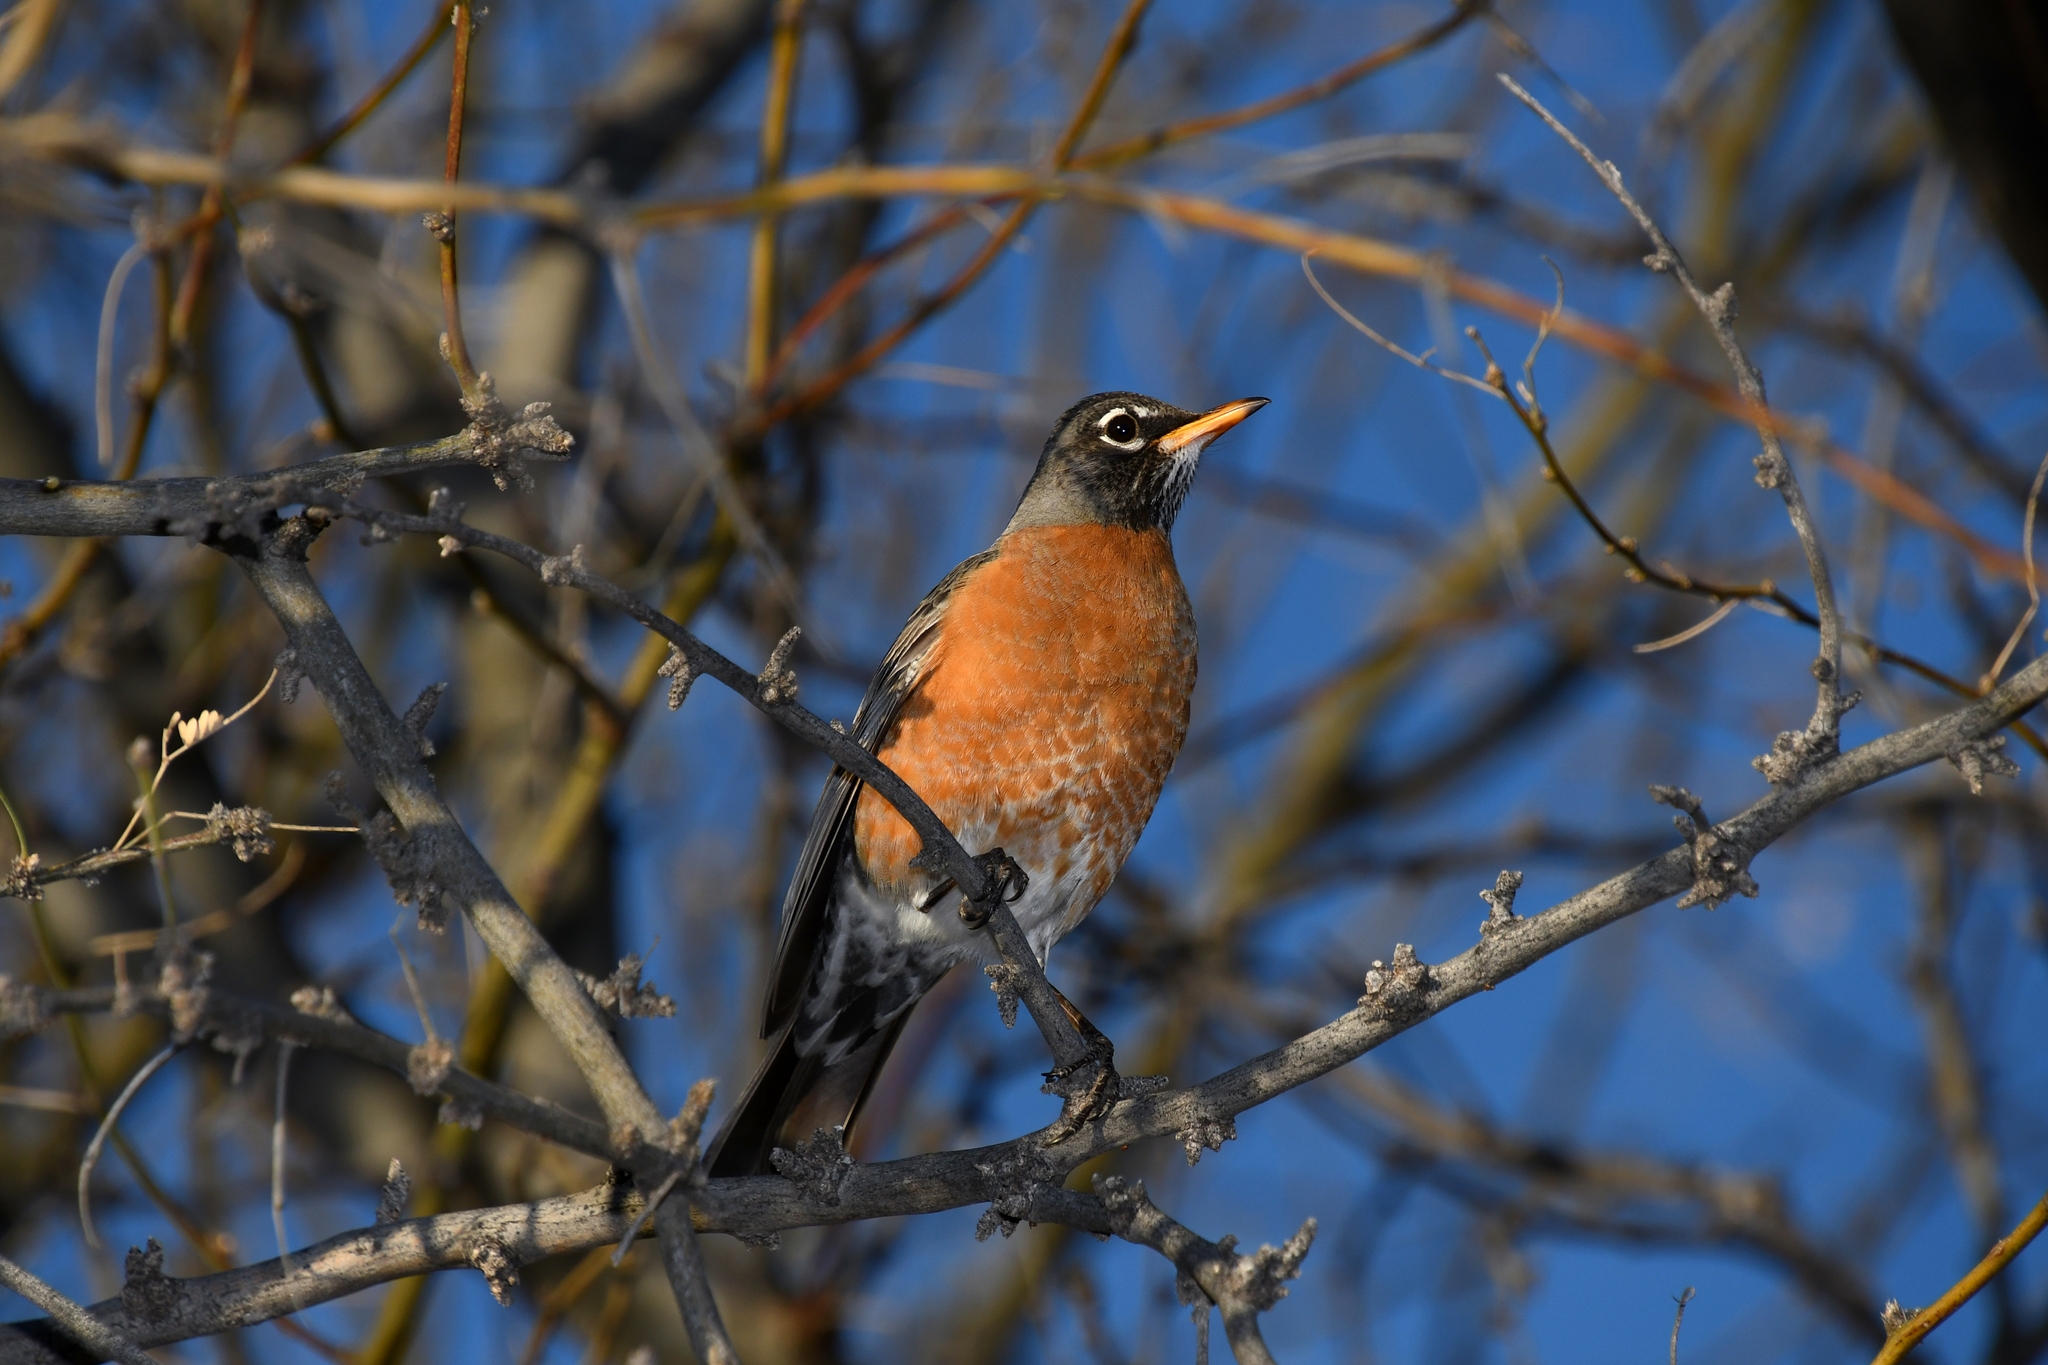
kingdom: Animalia
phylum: Chordata
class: Aves
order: Passeriformes
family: Turdidae
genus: Turdus
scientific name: Turdus migratorius
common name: American robin
